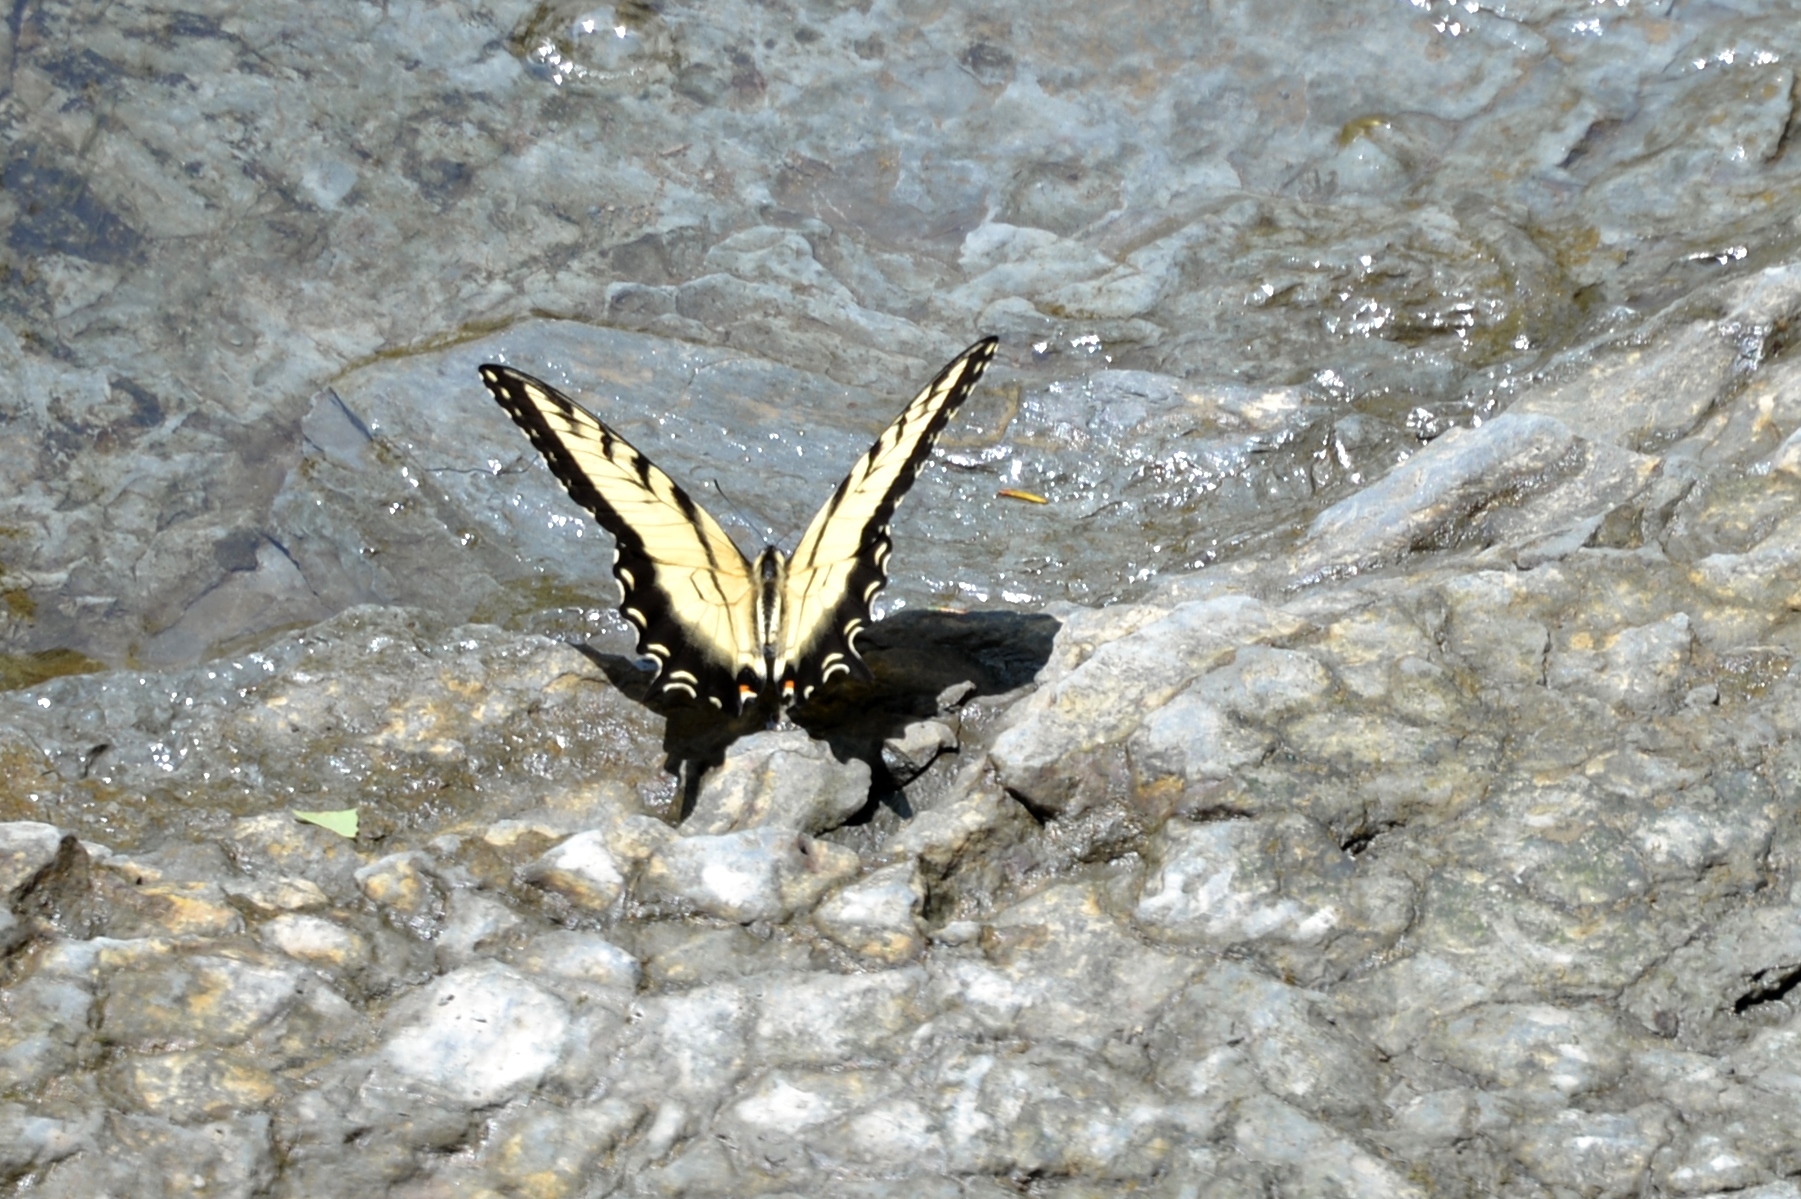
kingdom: Animalia
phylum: Arthropoda
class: Insecta
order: Lepidoptera
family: Papilionidae
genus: Papilio
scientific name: Papilio glaucus
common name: Tiger swallowtail
